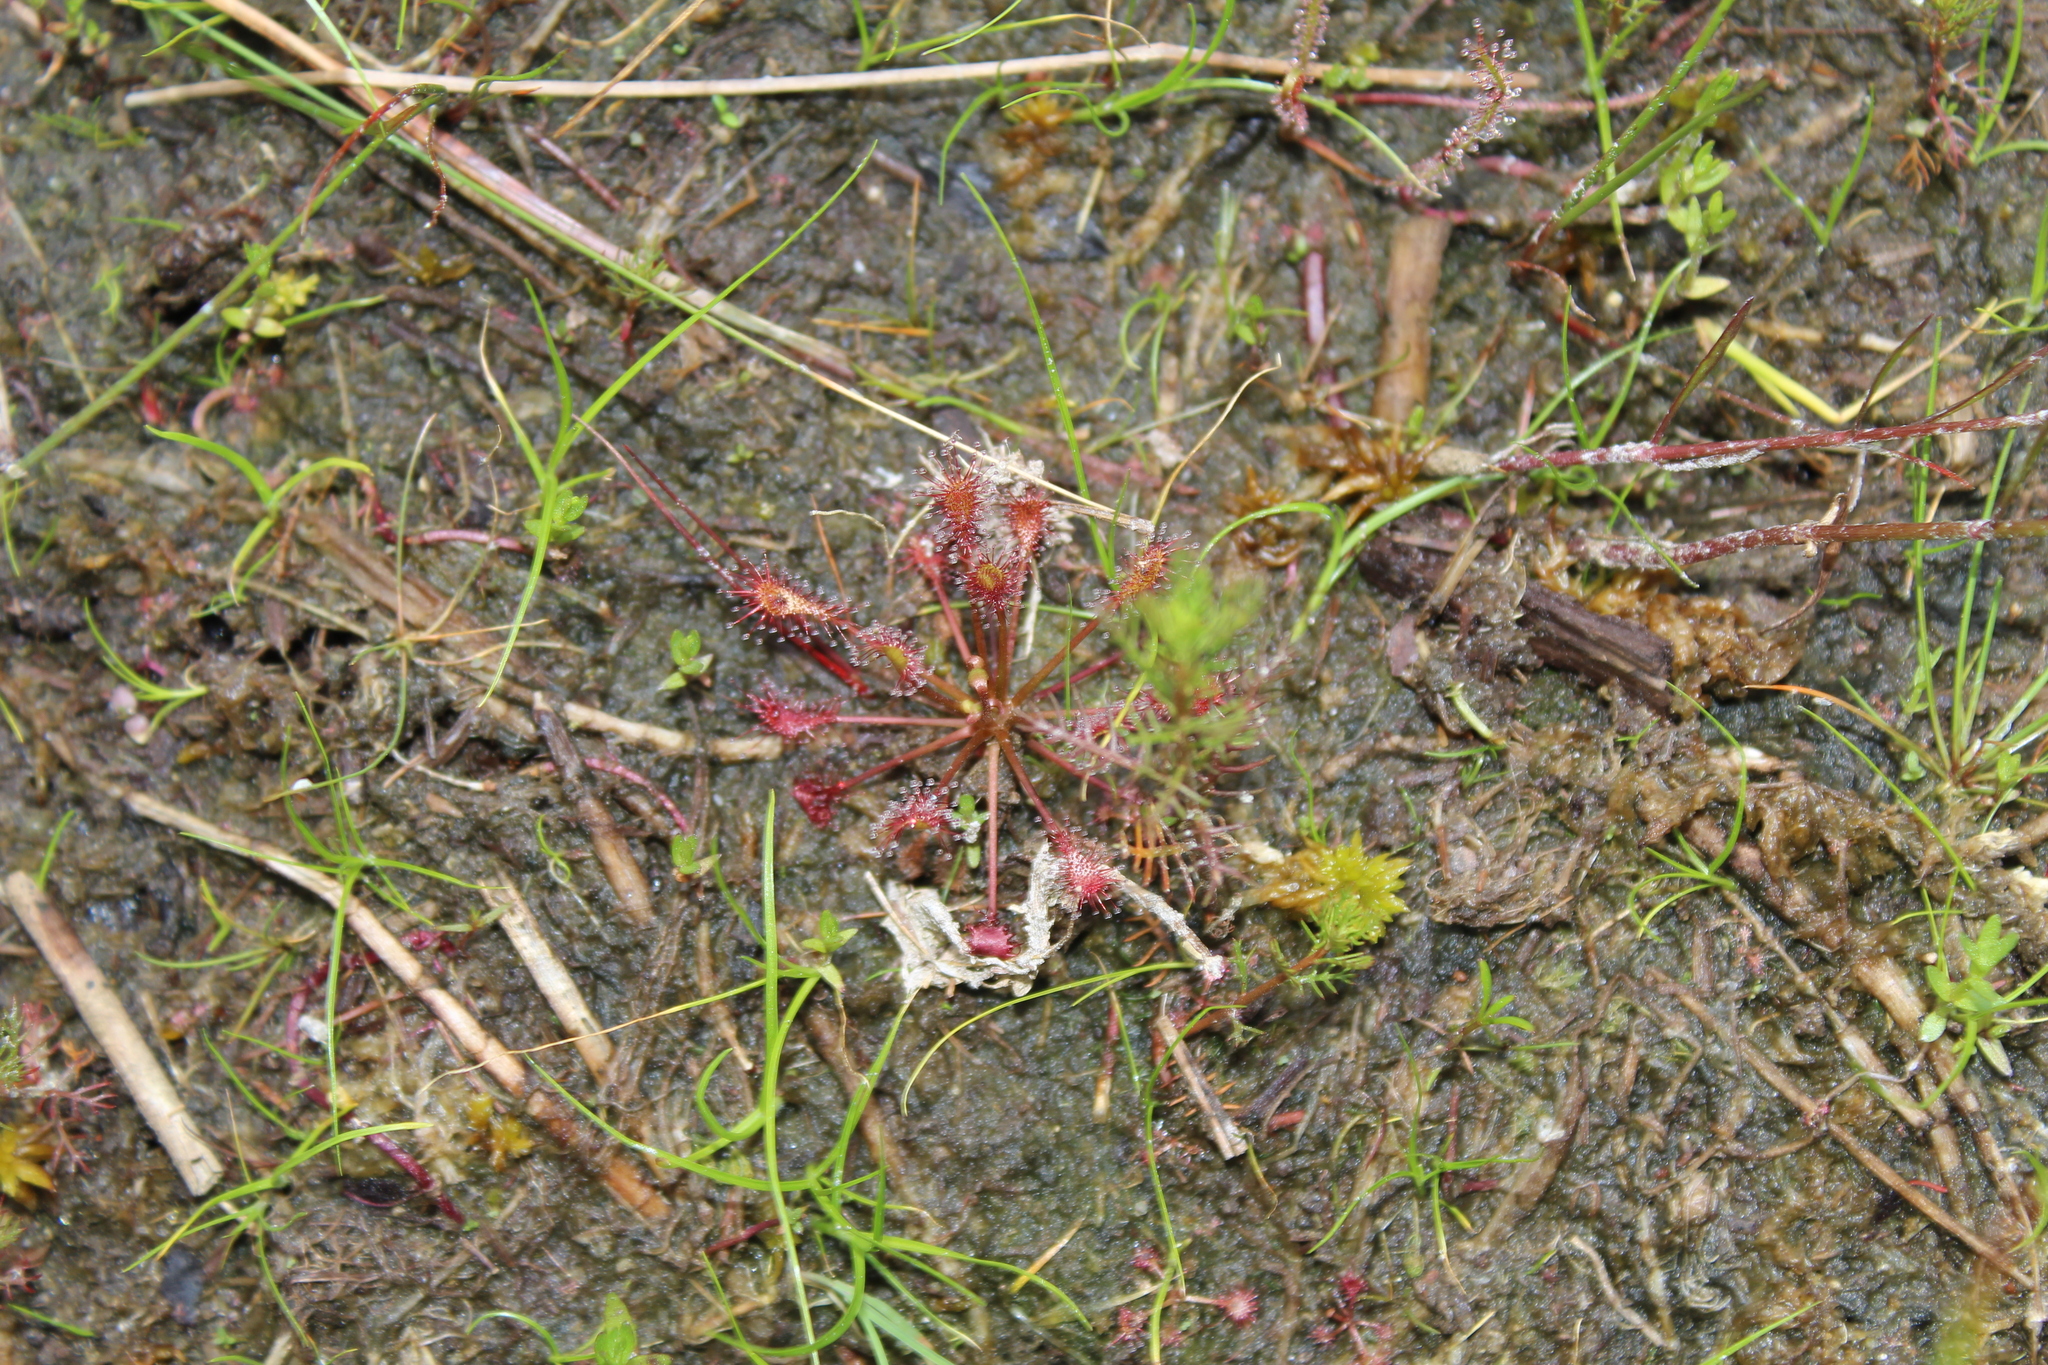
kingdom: Plantae
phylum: Tracheophyta
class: Magnoliopsida
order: Caryophyllales
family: Droseraceae
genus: Drosera
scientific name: Drosera intermedia
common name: Oblong-leaved sundew
